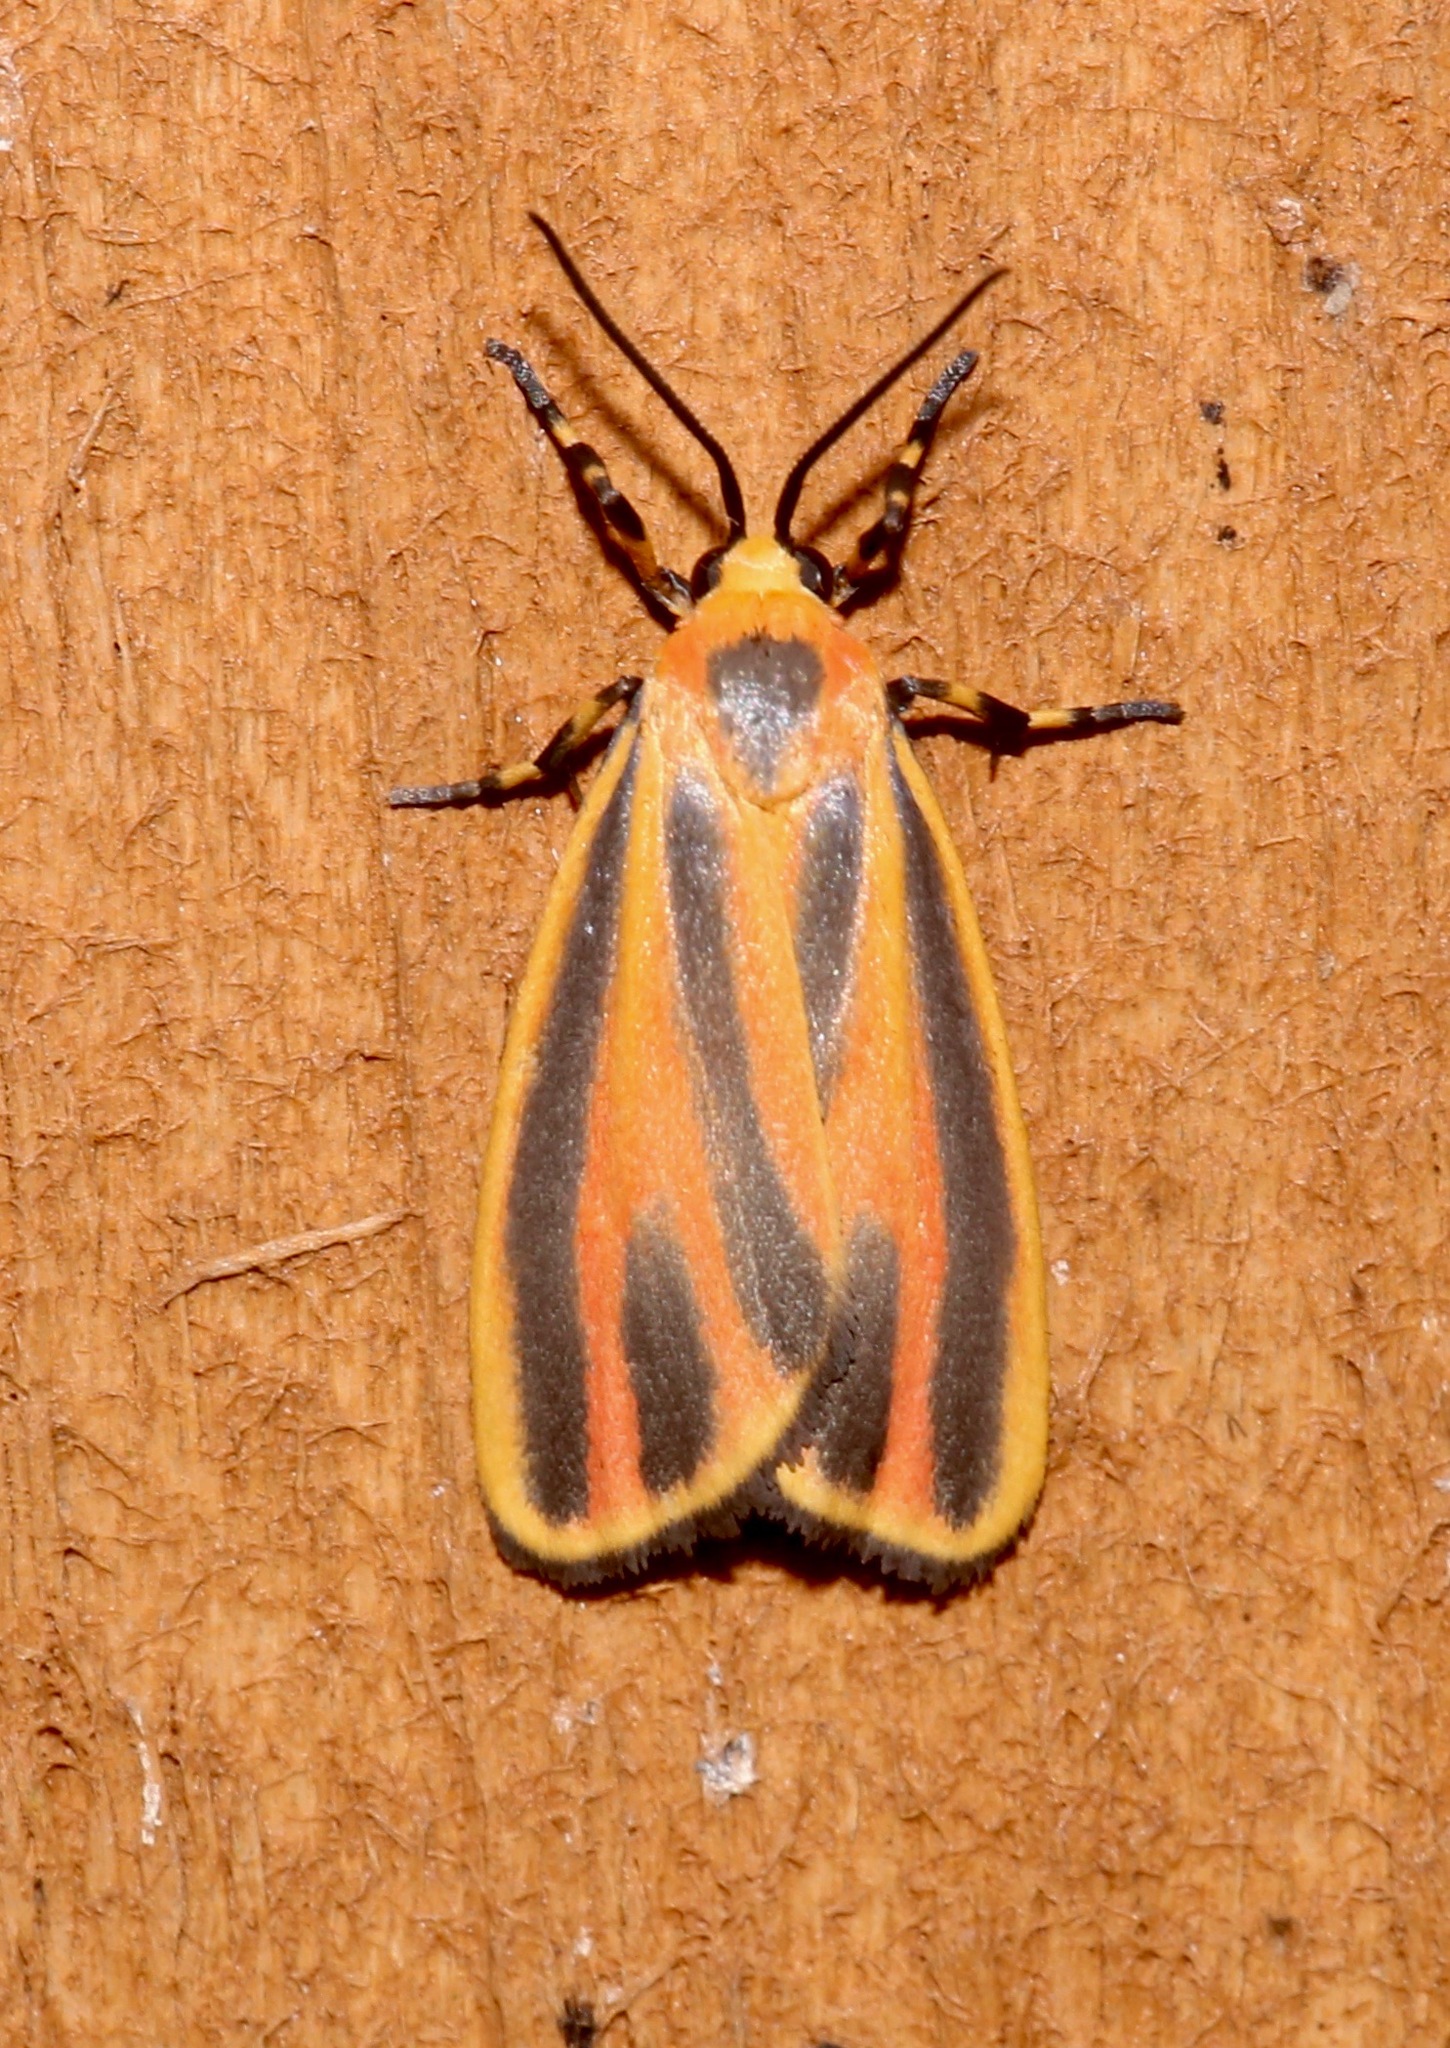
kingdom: Animalia
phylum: Arthropoda
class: Insecta
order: Lepidoptera
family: Erebidae
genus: Hypoprepia
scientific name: Hypoprepia fucosa
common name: Painted lichen moth
